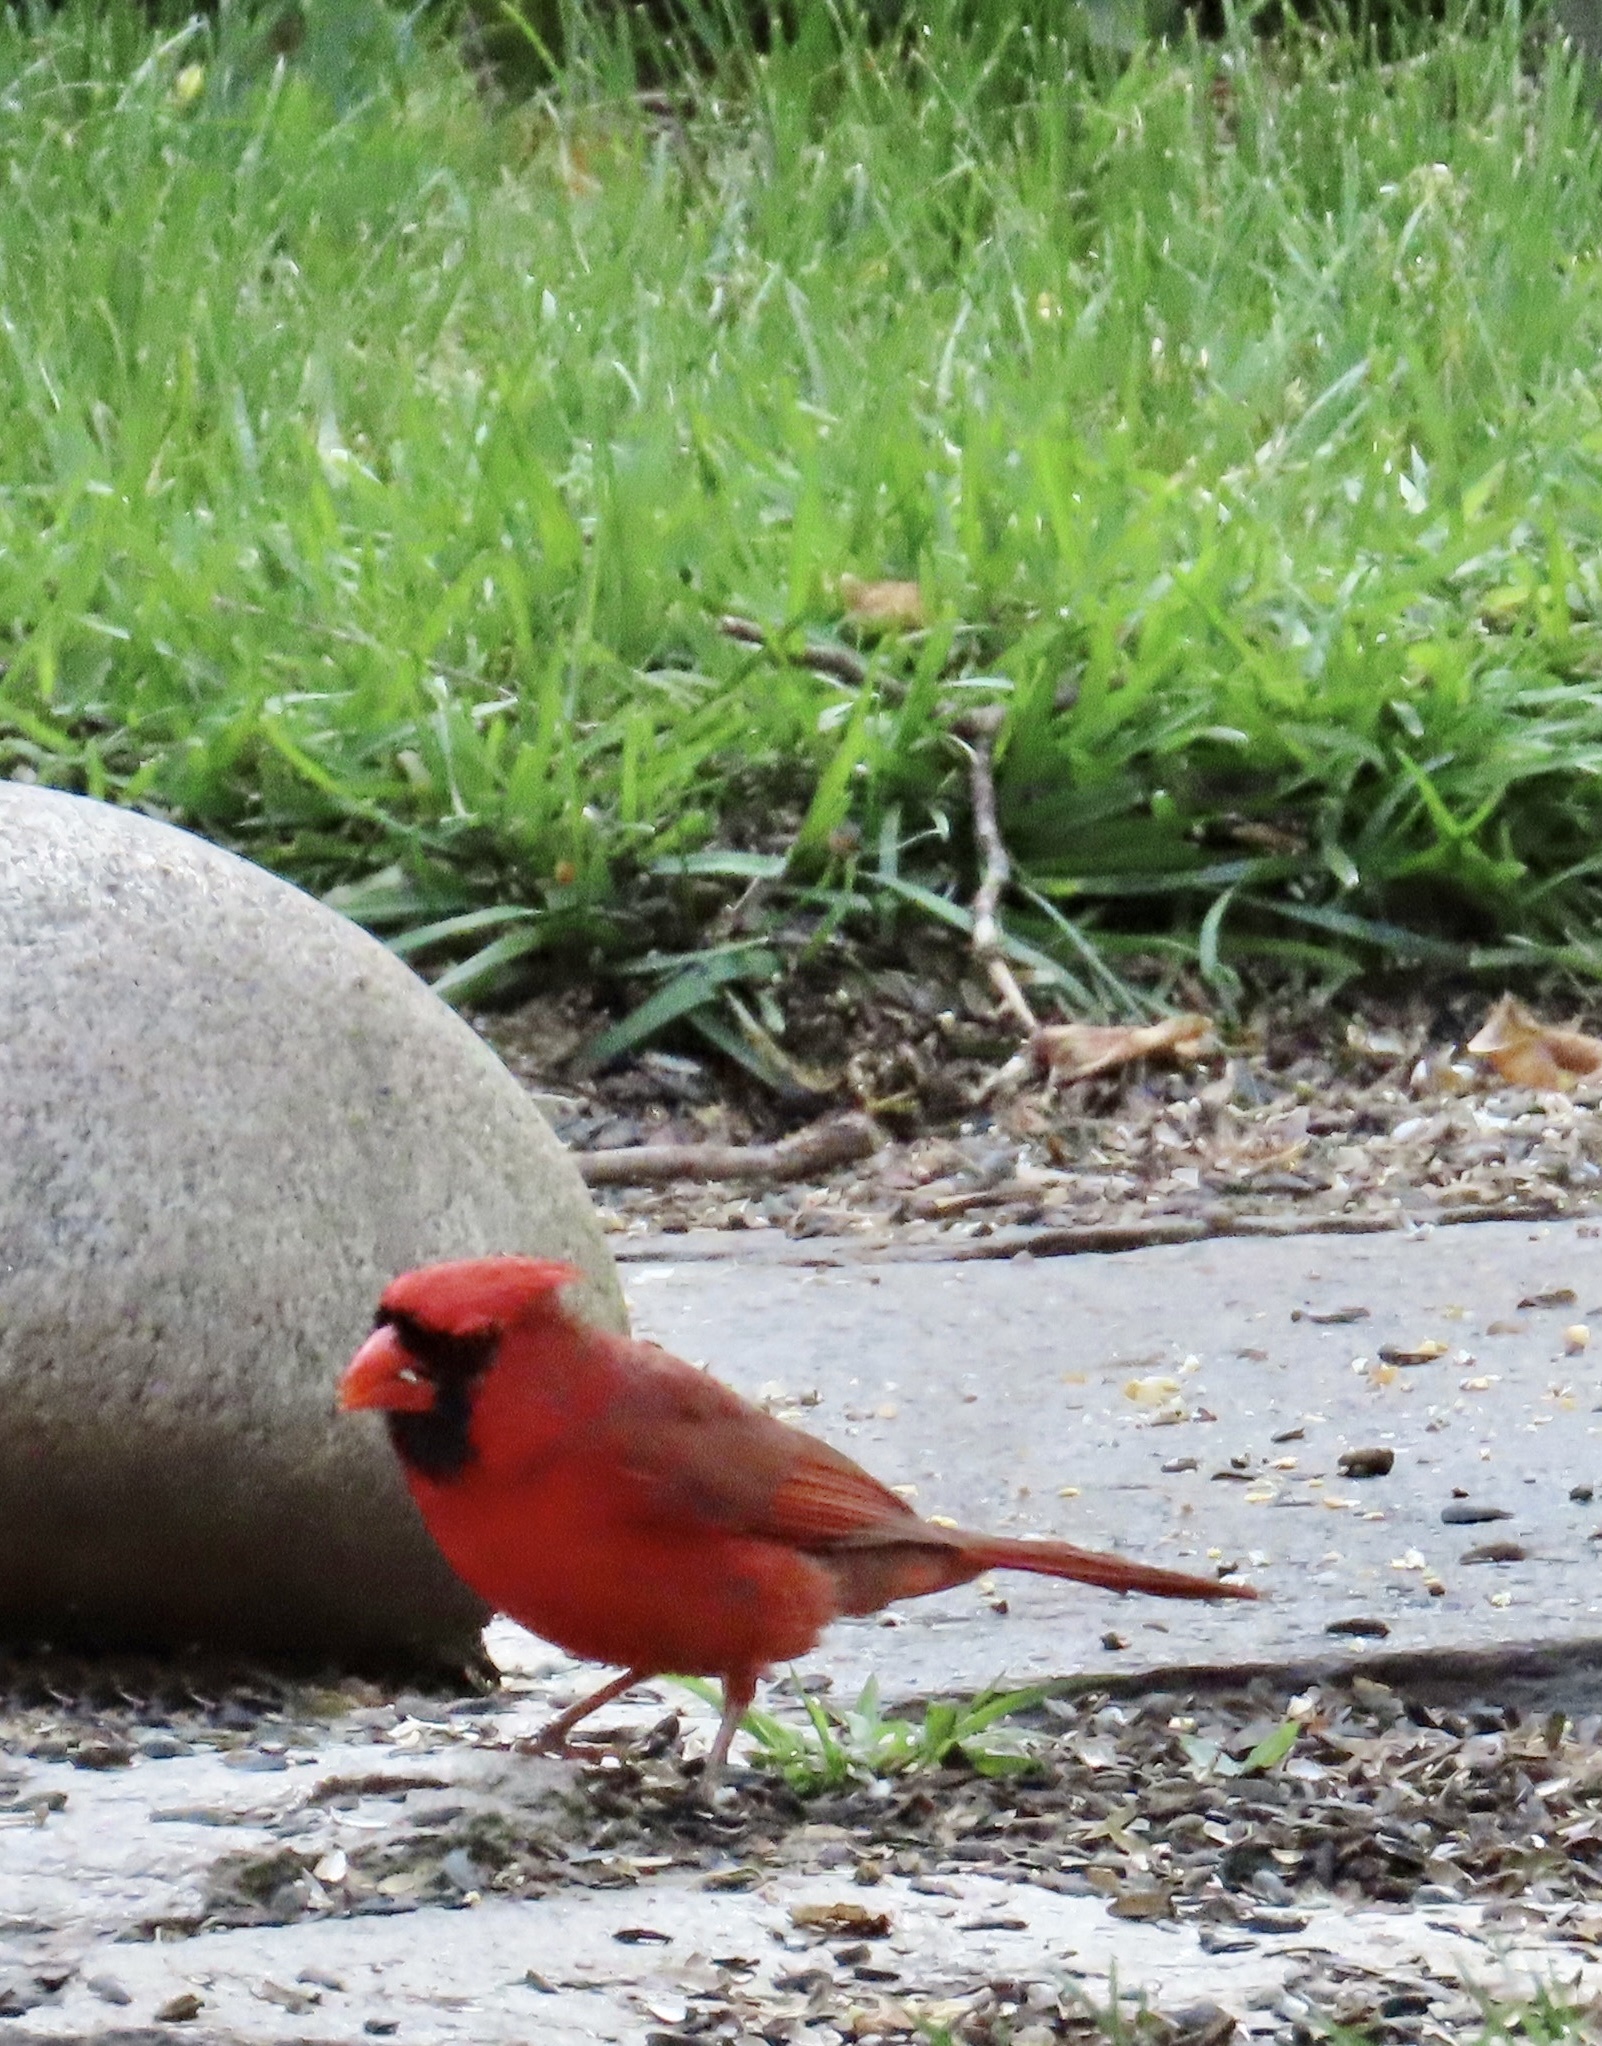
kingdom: Animalia
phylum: Chordata
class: Aves
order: Passeriformes
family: Cardinalidae
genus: Cardinalis
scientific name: Cardinalis cardinalis
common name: Northern cardinal
